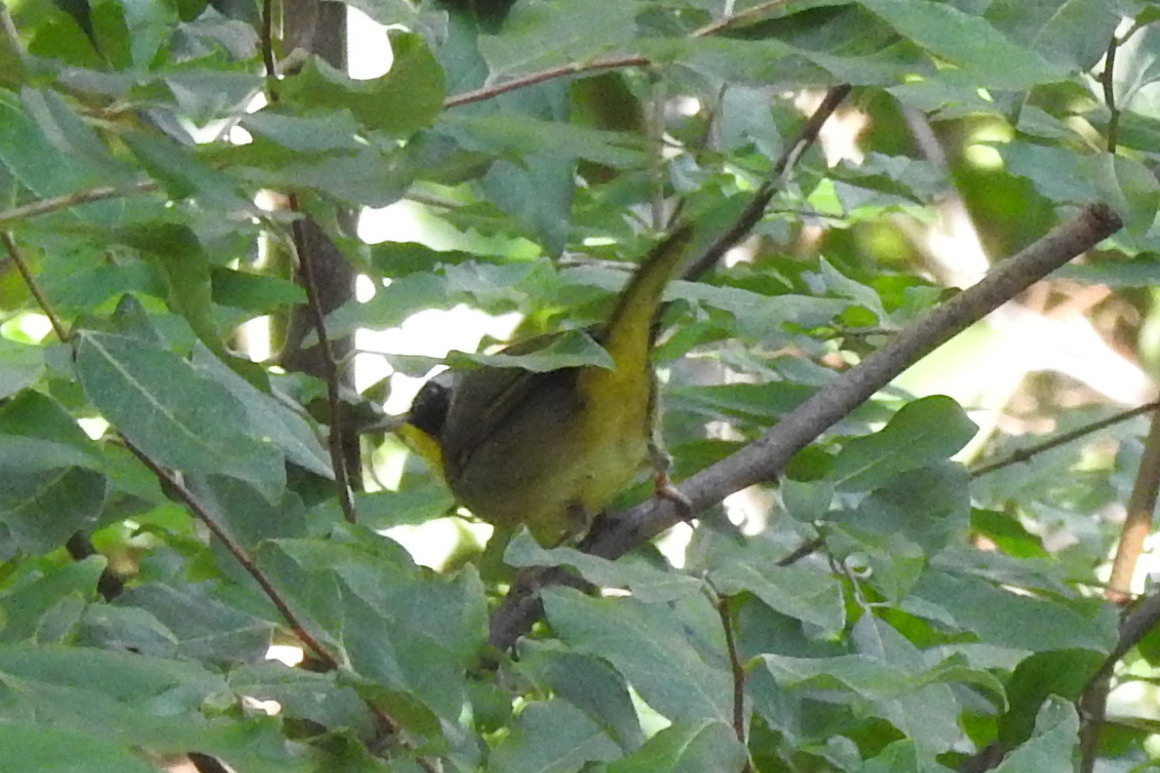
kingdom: Animalia
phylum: Chordata
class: Aves
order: Passeriformes
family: Parulidae
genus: Geothlypis
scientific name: Geothlypis trichas
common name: Common yellowthroat
